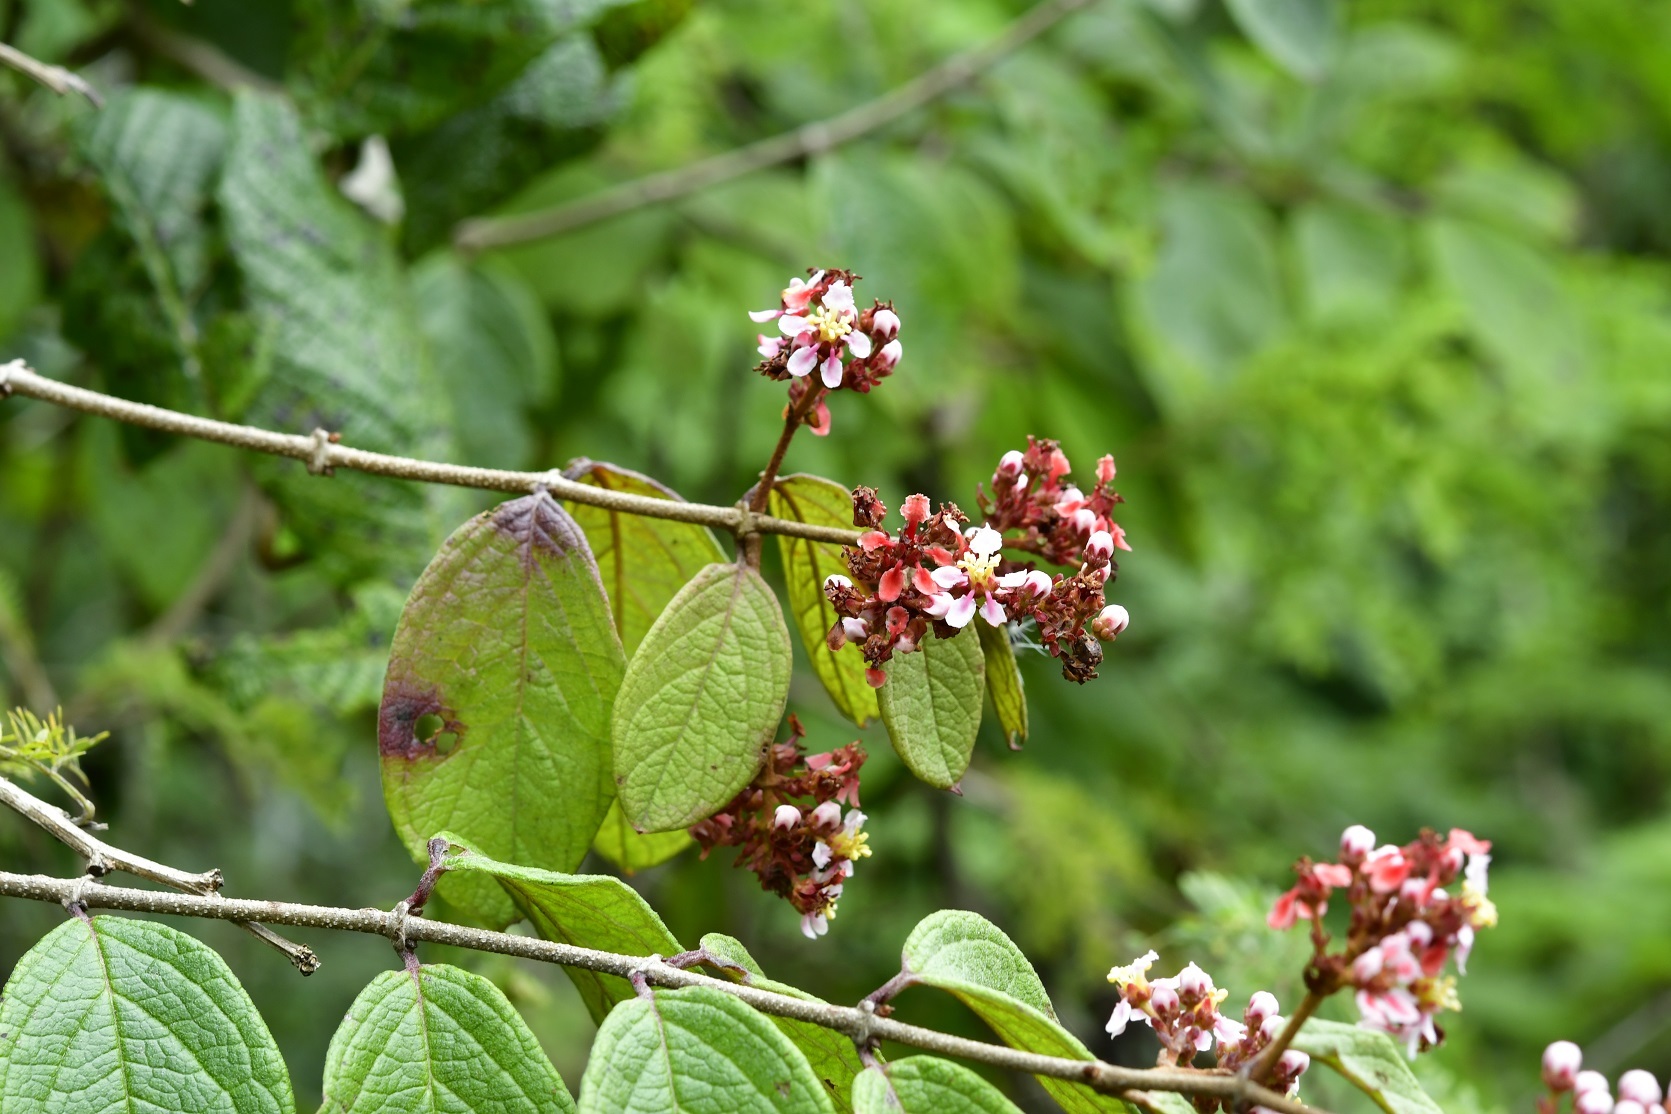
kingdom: Plantae
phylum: Tracheophyta
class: Magnoliopsida
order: Malpighiales
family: Malpighiaceae
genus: Heteropterys
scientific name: Heteropterys brachiata
